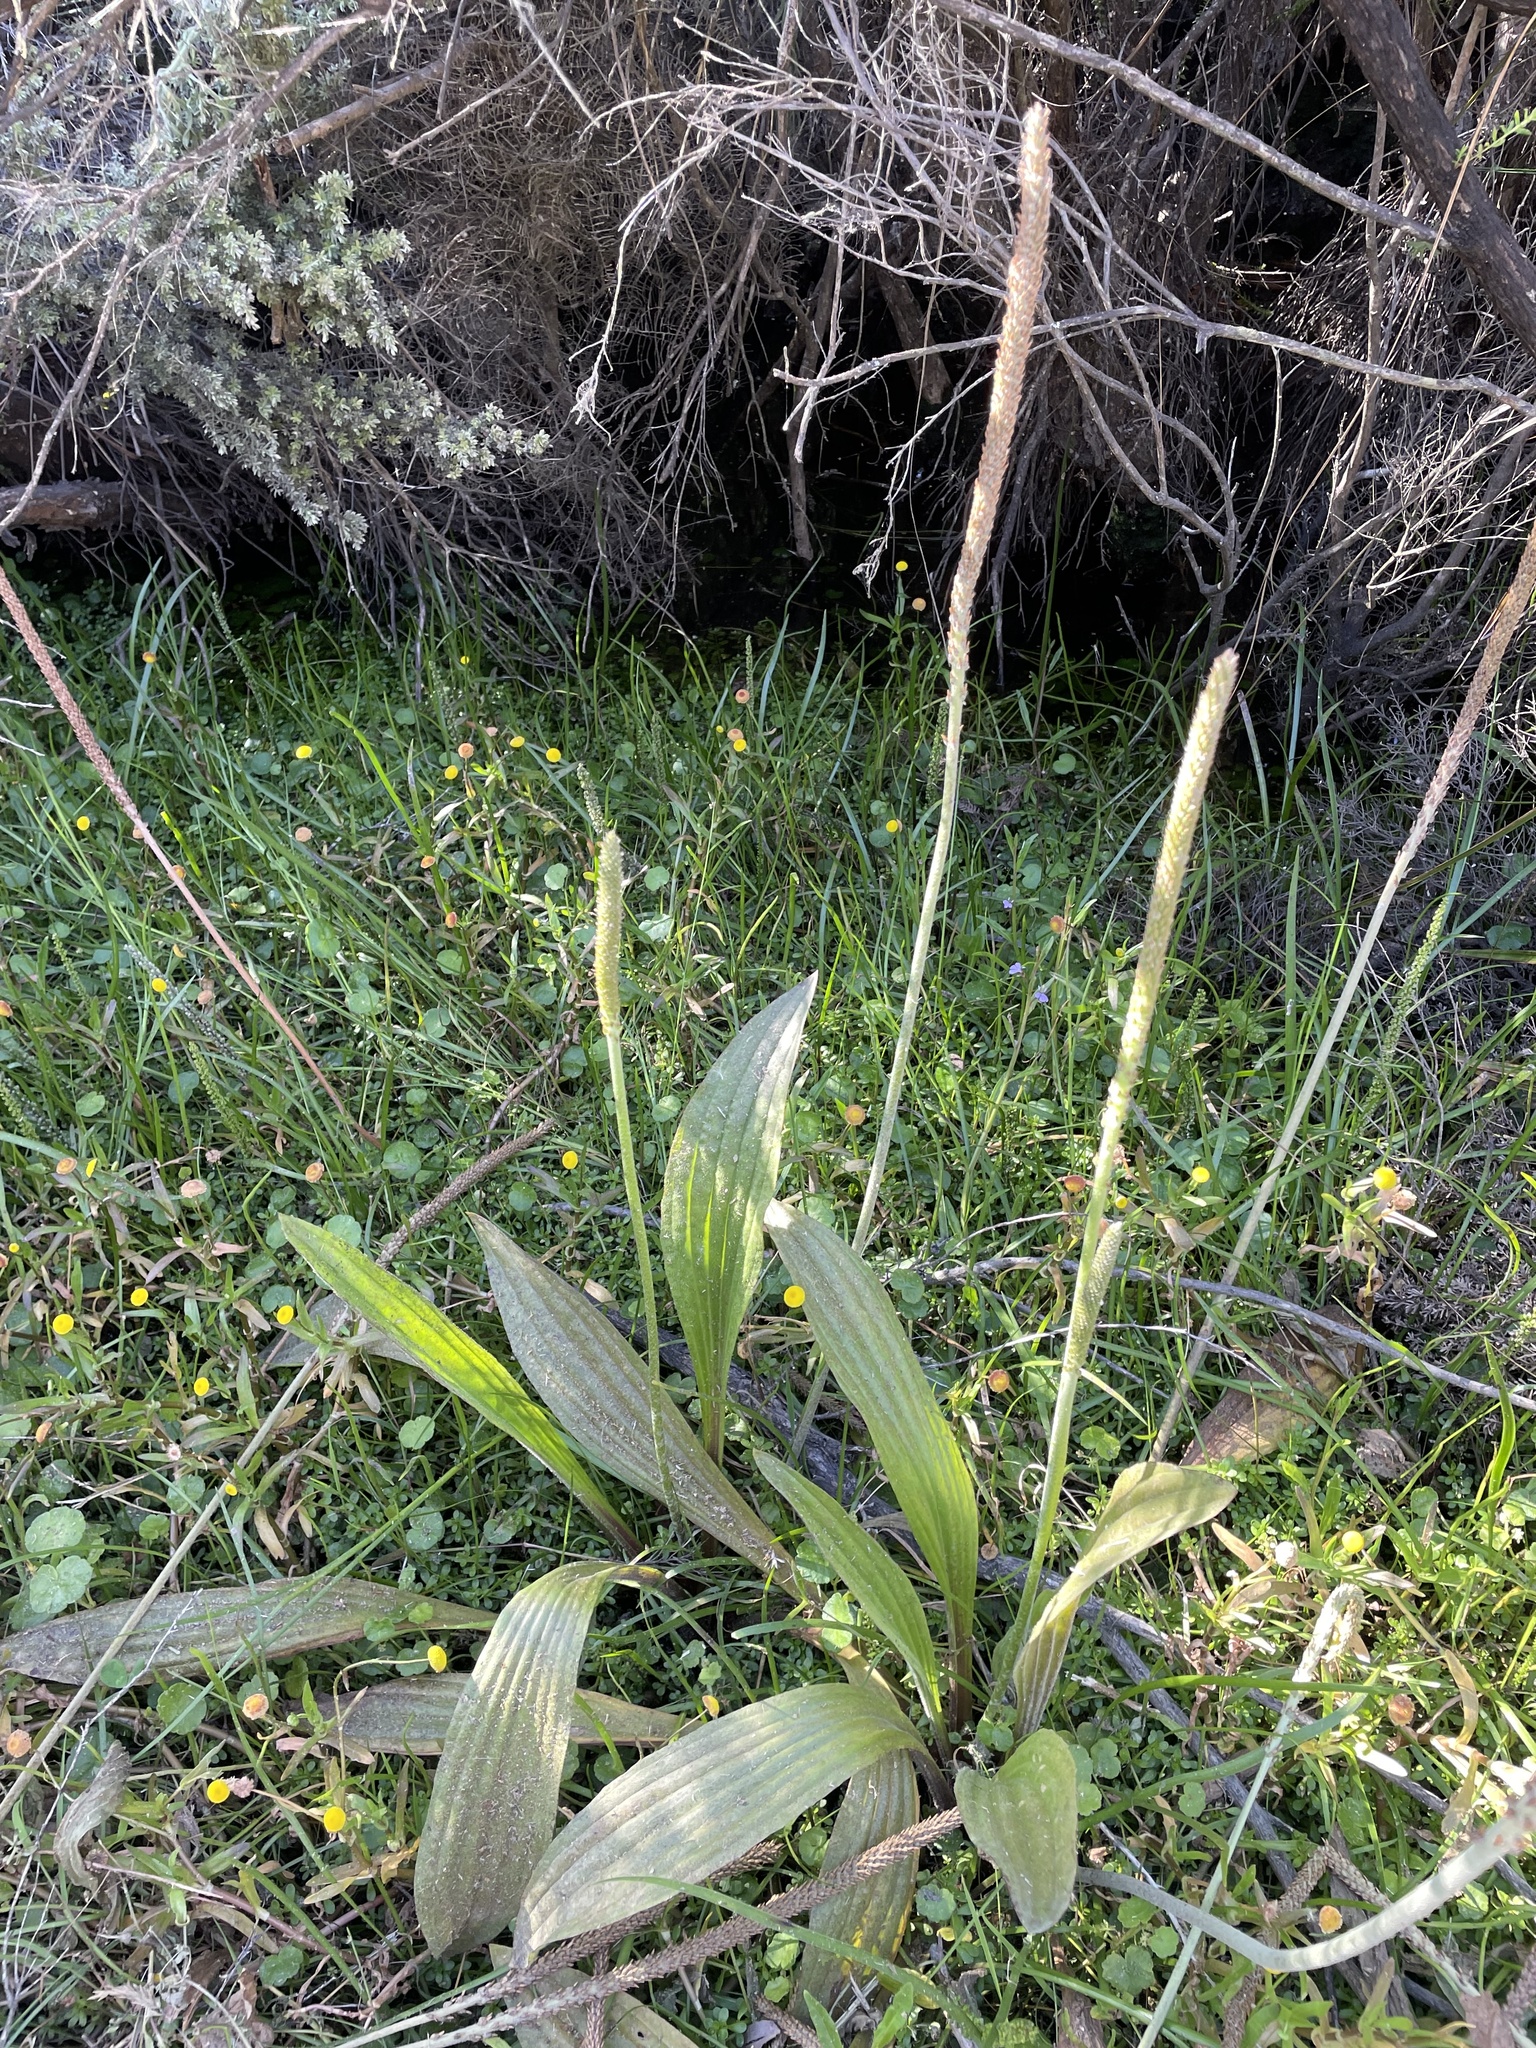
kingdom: Plantae
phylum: Tracheophyta
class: Magnoliopsida
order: Lamiales
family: Plantaginaceae
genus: Plantago
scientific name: Plantago australis
